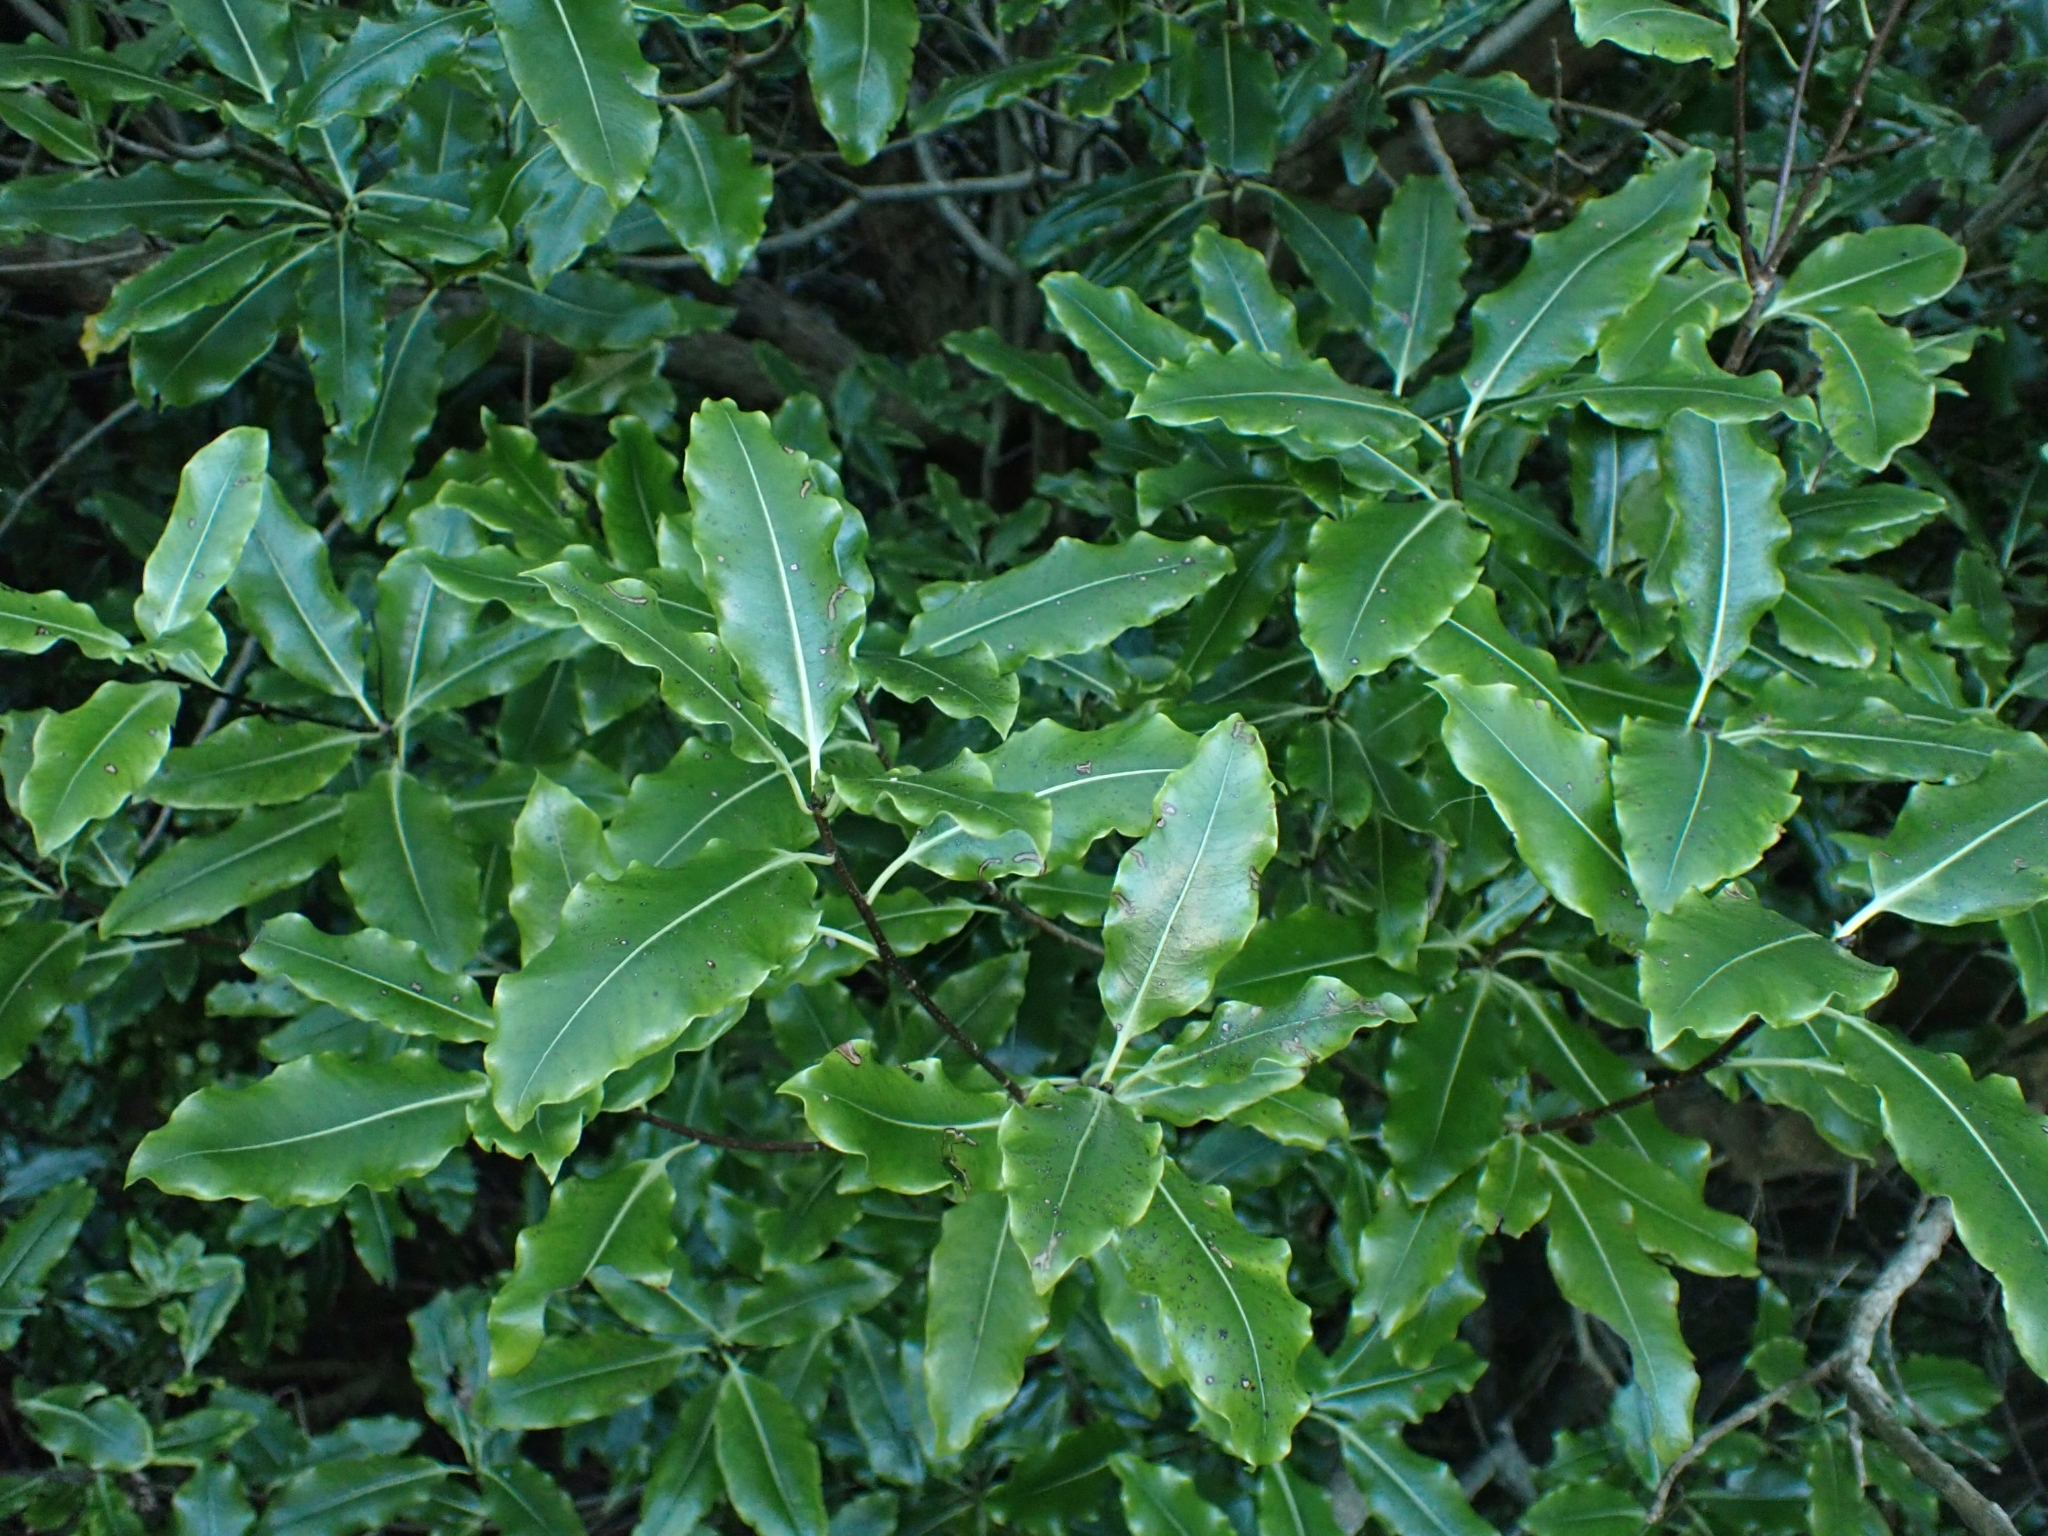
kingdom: Plantae
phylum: Tracheophyta
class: Magnoliopsida
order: Apiales
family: Pittosporaceae
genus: Pittosporum
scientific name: Pittosporum eugenioides
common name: Lemonwood
